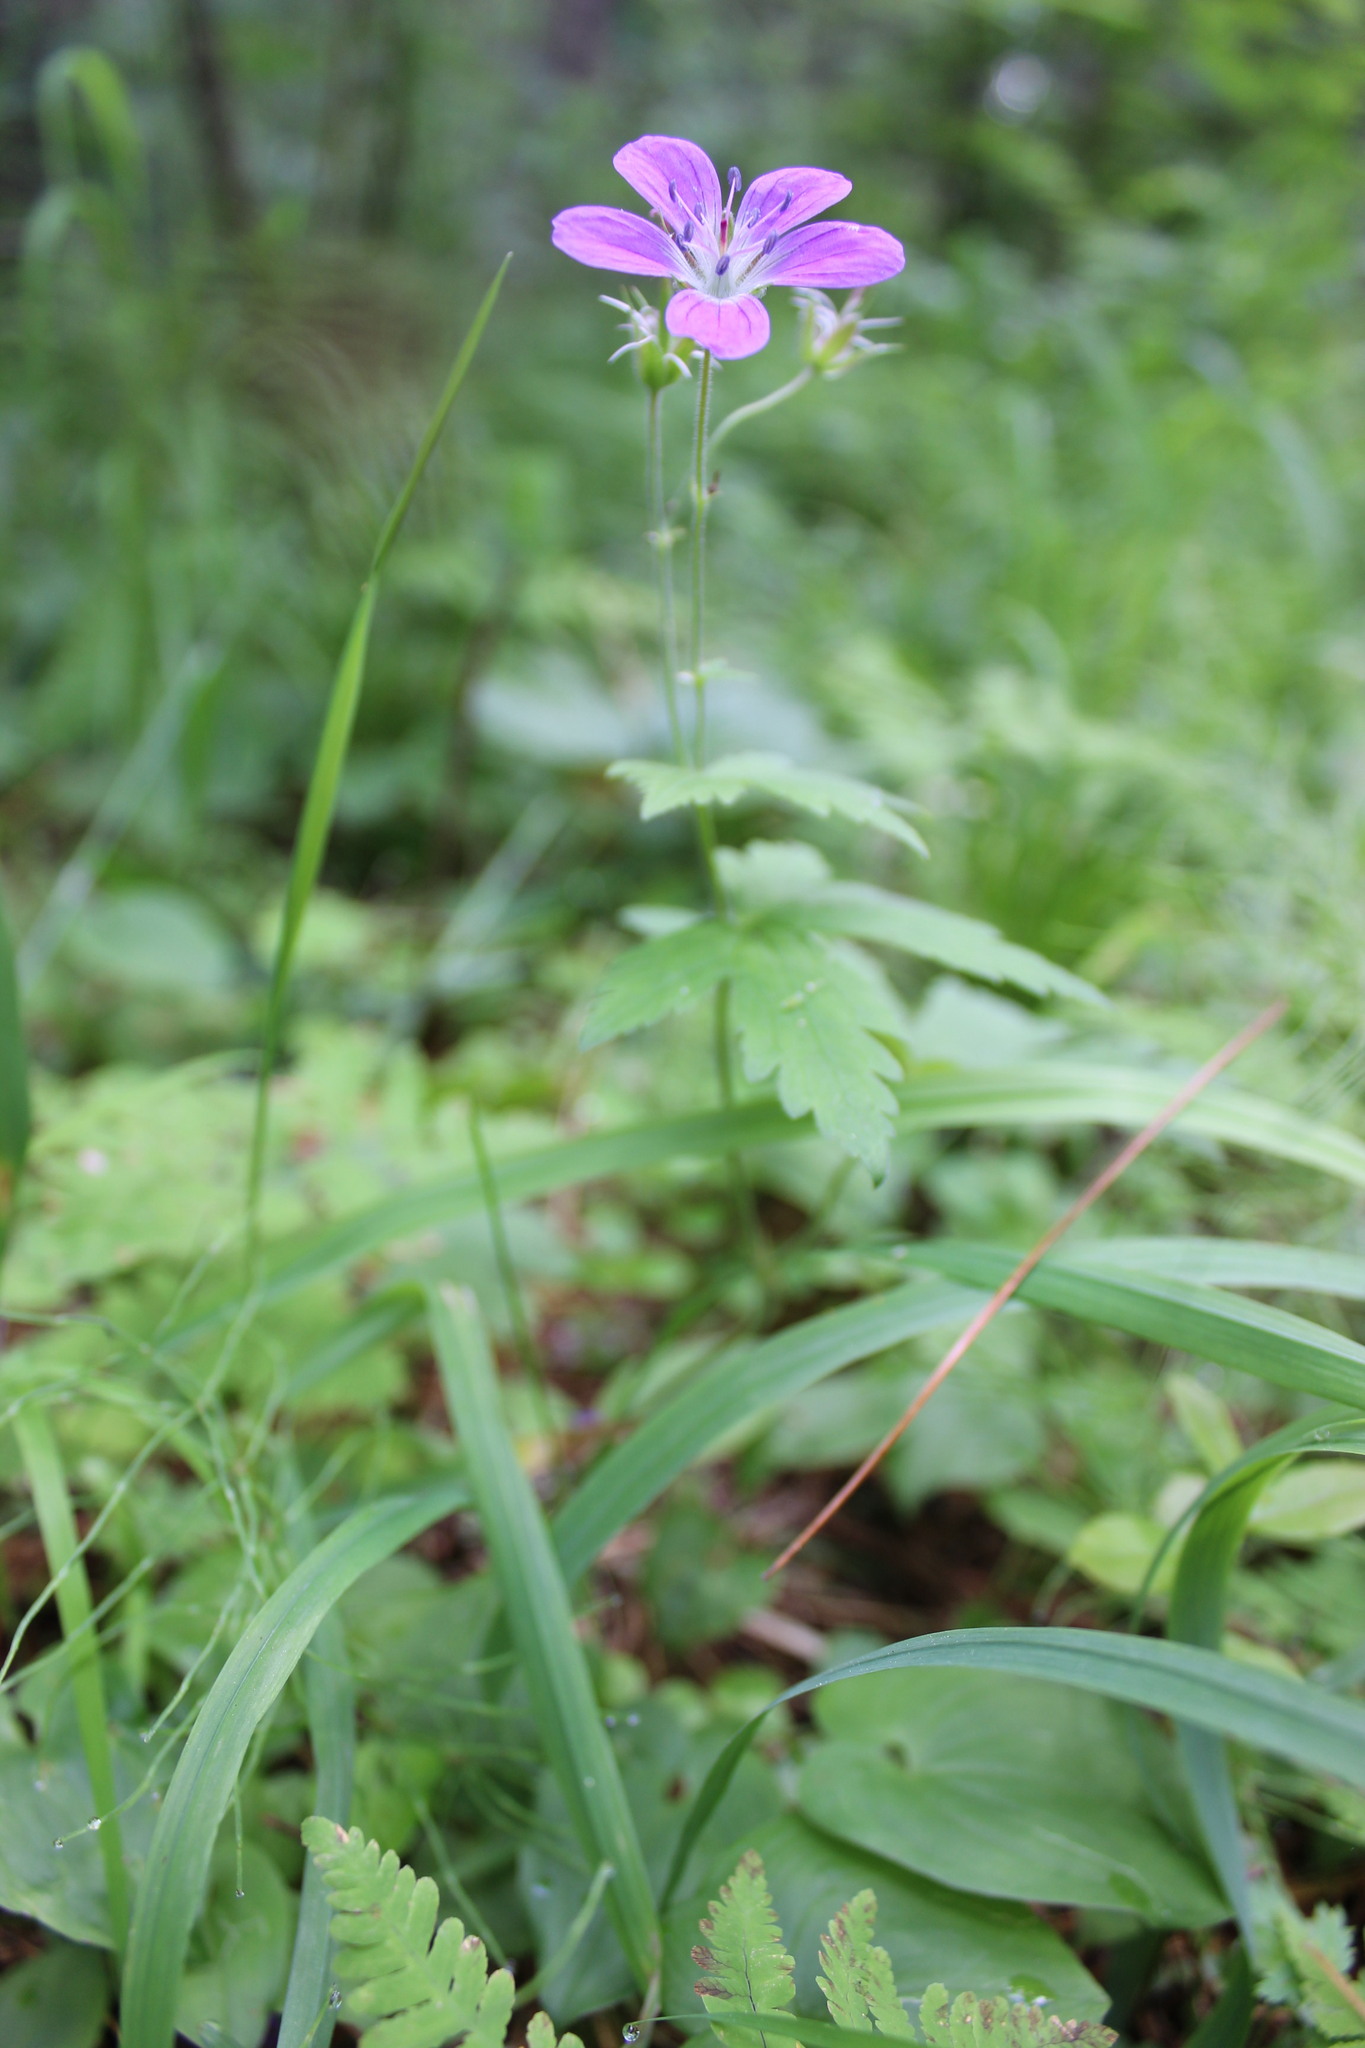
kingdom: Plantae
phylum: Tracheophyta
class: Magnoliopsida
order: Geraniales
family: Geraniaceae
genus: Geranium
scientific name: Geranium sylvaticum
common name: Wood crane's-bill
